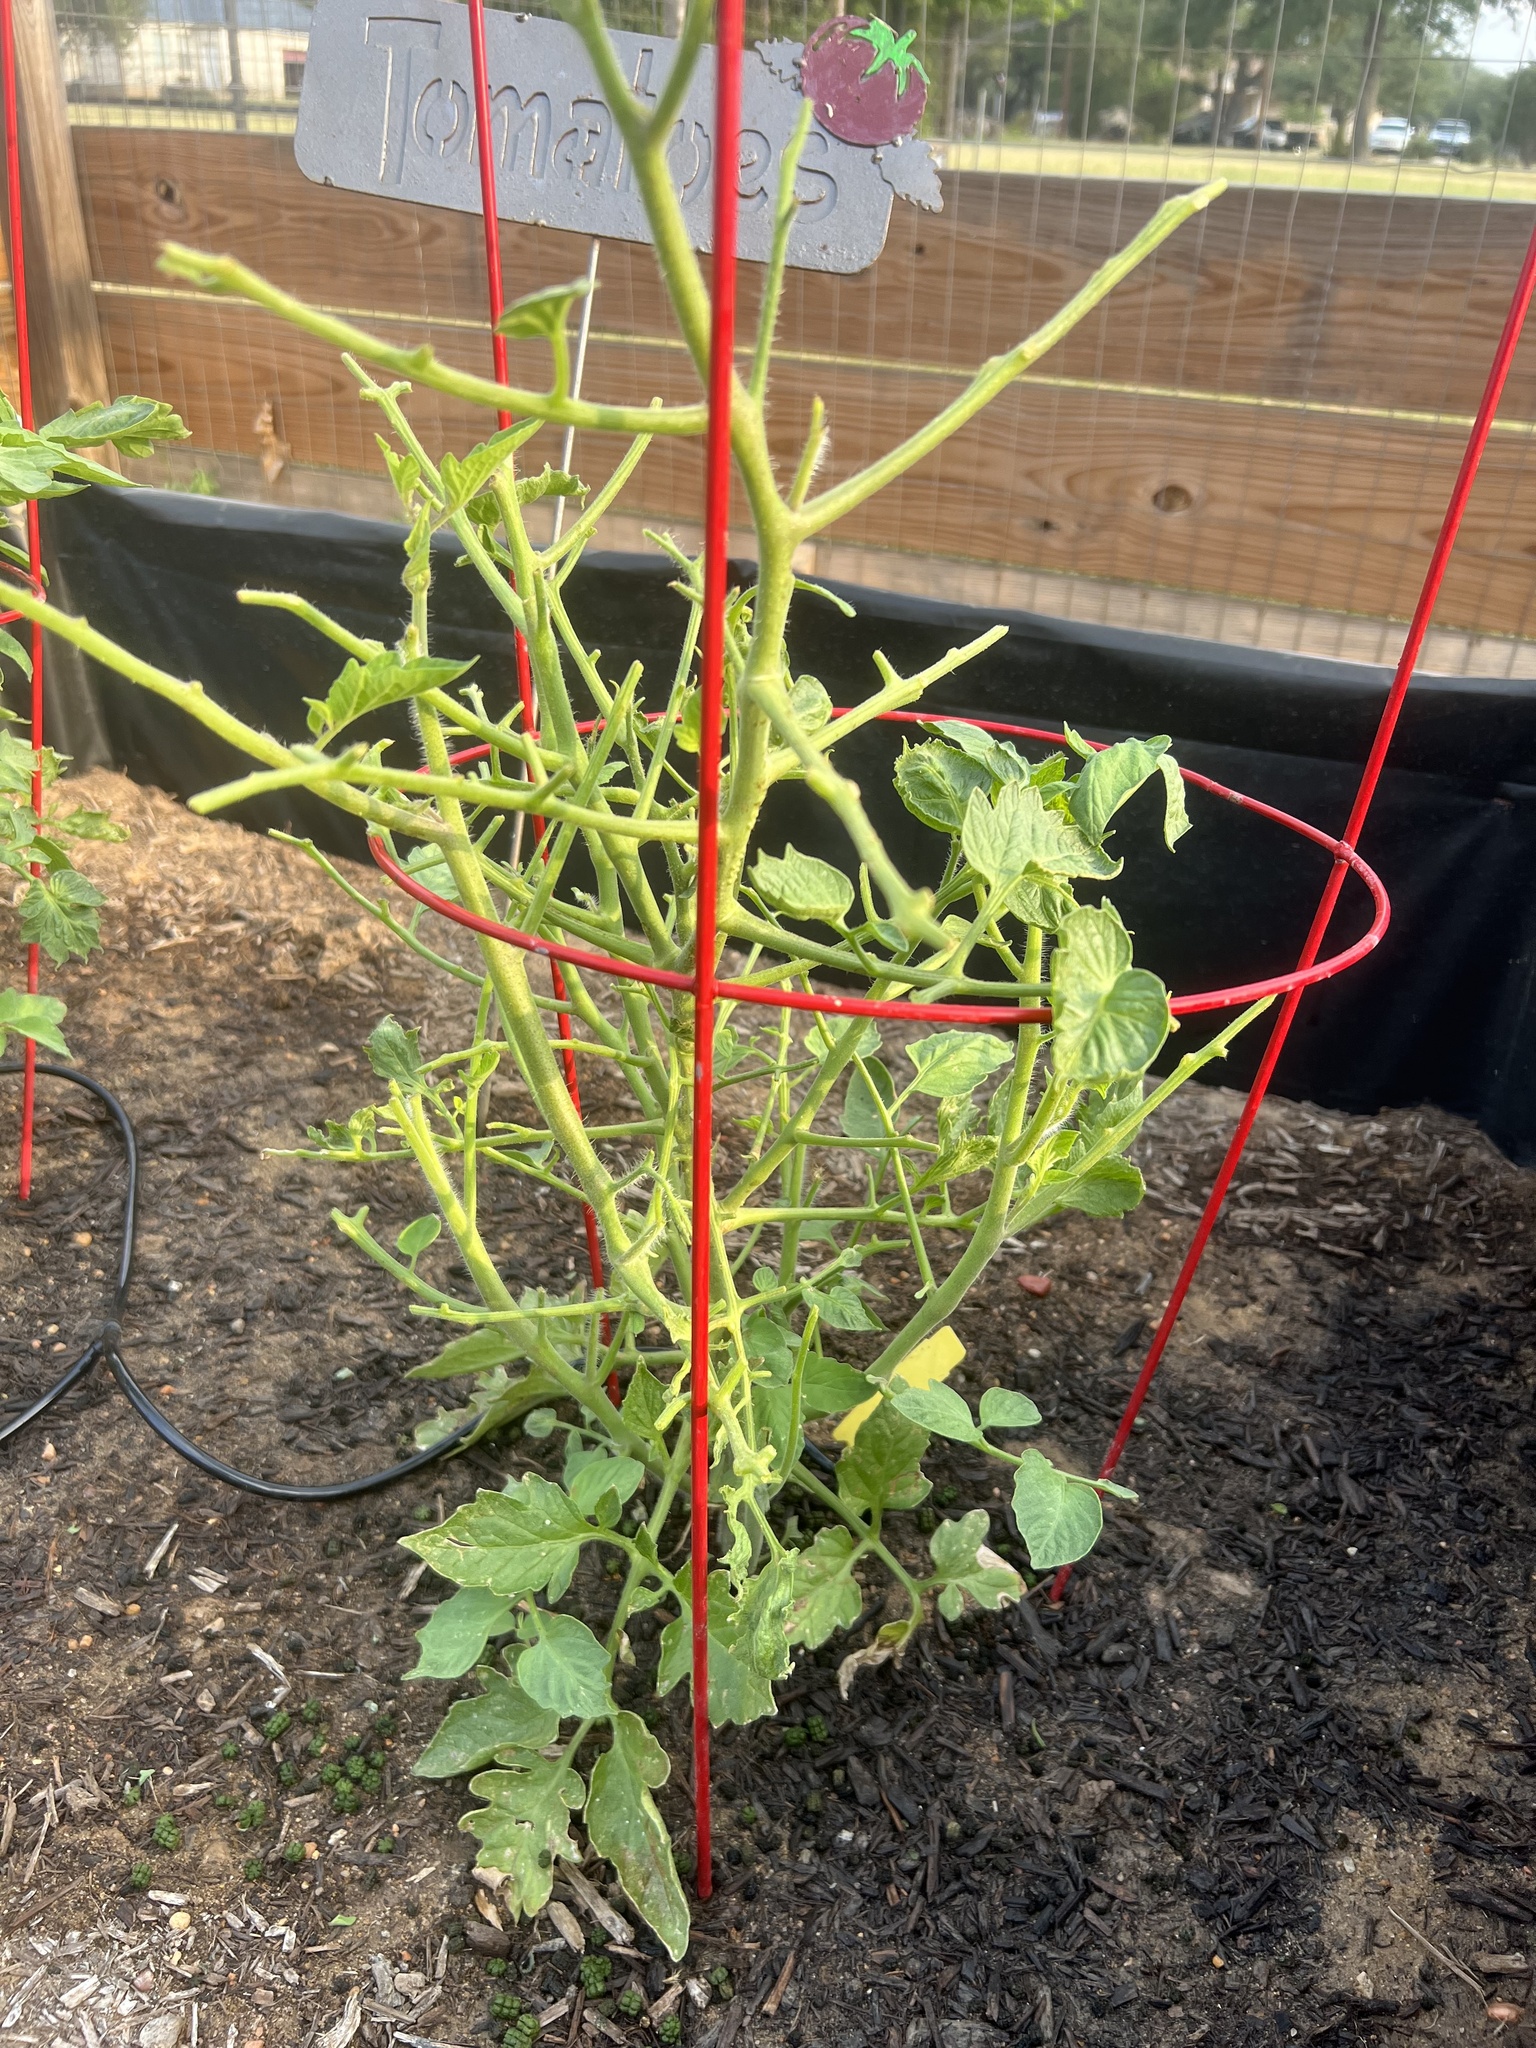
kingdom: Animalia
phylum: Arthropoda
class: Insecta
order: Lepidoptera
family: Sphingidae
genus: Manduca
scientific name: Manduca quinquemaculatus
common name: Five-spotted hawk-moth
